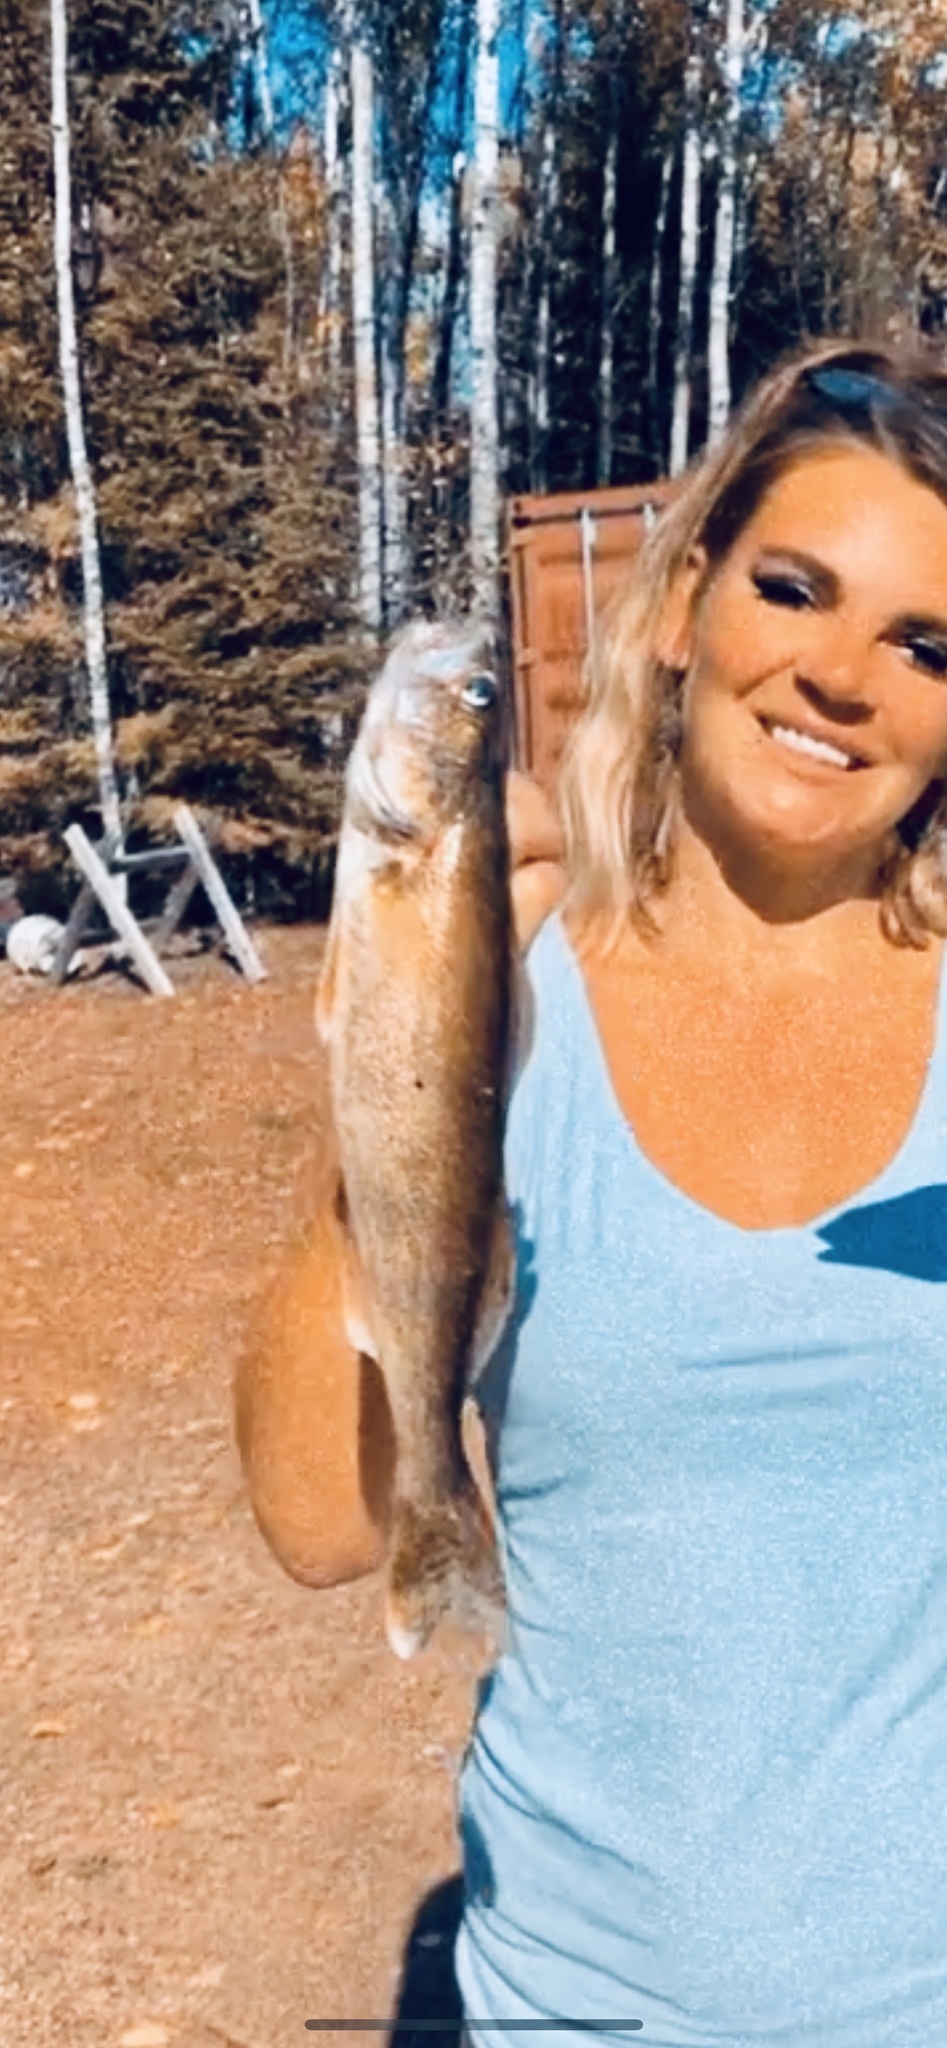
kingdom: Animalia
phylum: Chordata
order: Perciformes
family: Percidae
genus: Sander
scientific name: Sander vitreus
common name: Walleye
